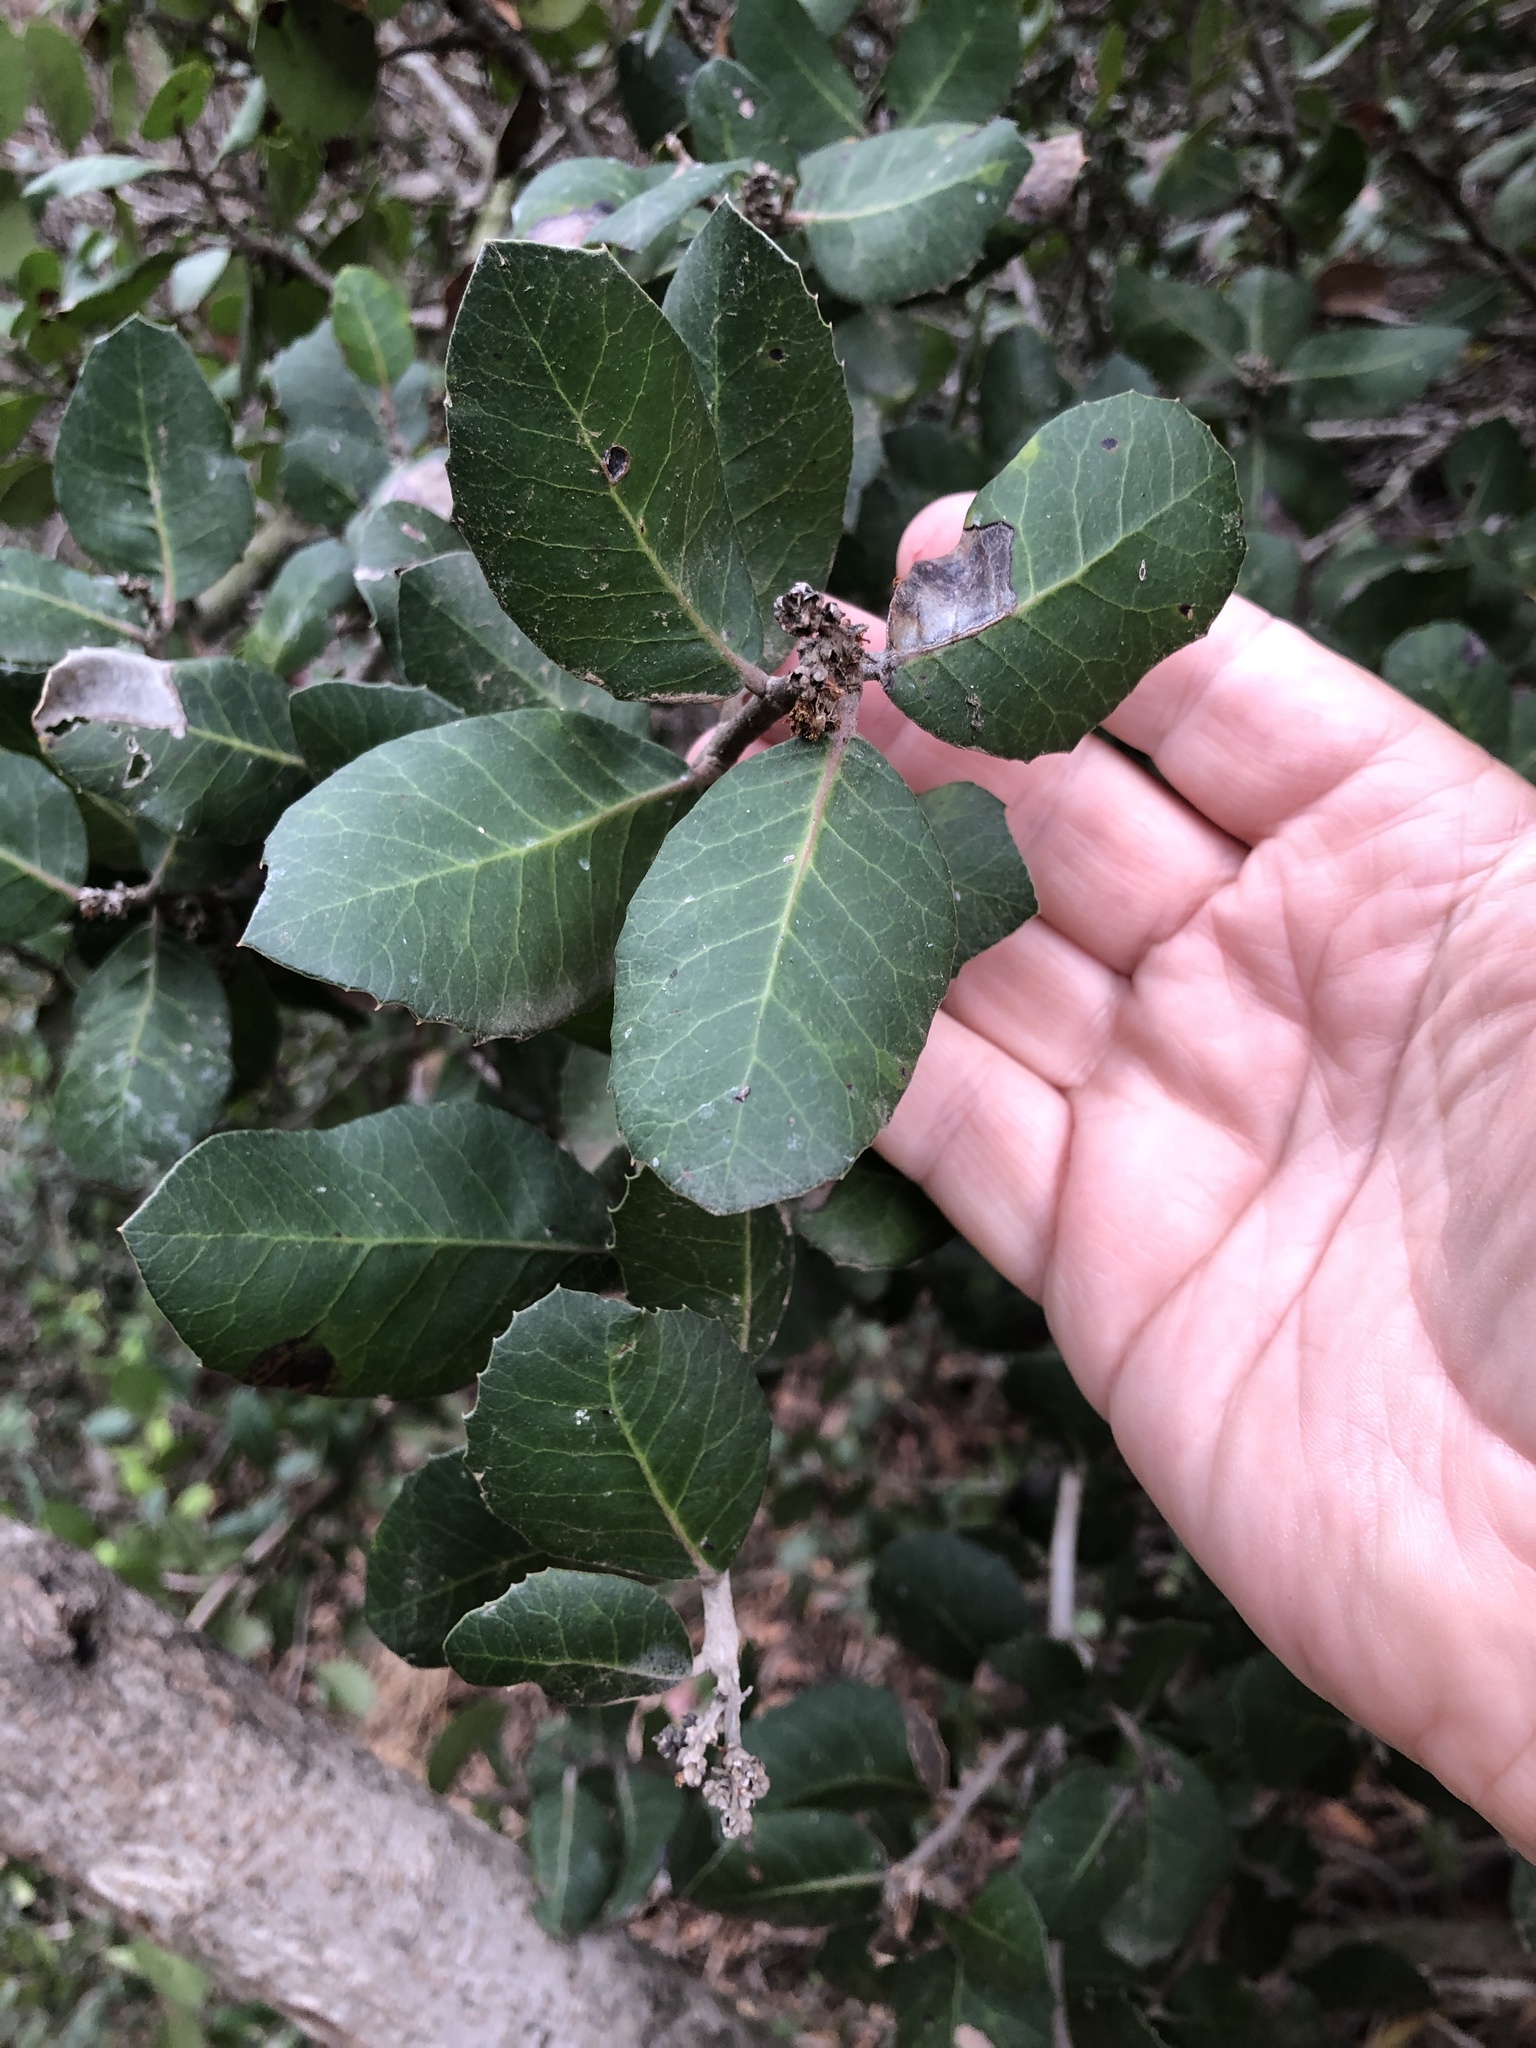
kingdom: Plantae
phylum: Tracheophyta
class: Magnoliopsida
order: Sapindales
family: Anacardiaceae
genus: Rhus
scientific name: Rhus integrifolia
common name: Lemonade sumac
